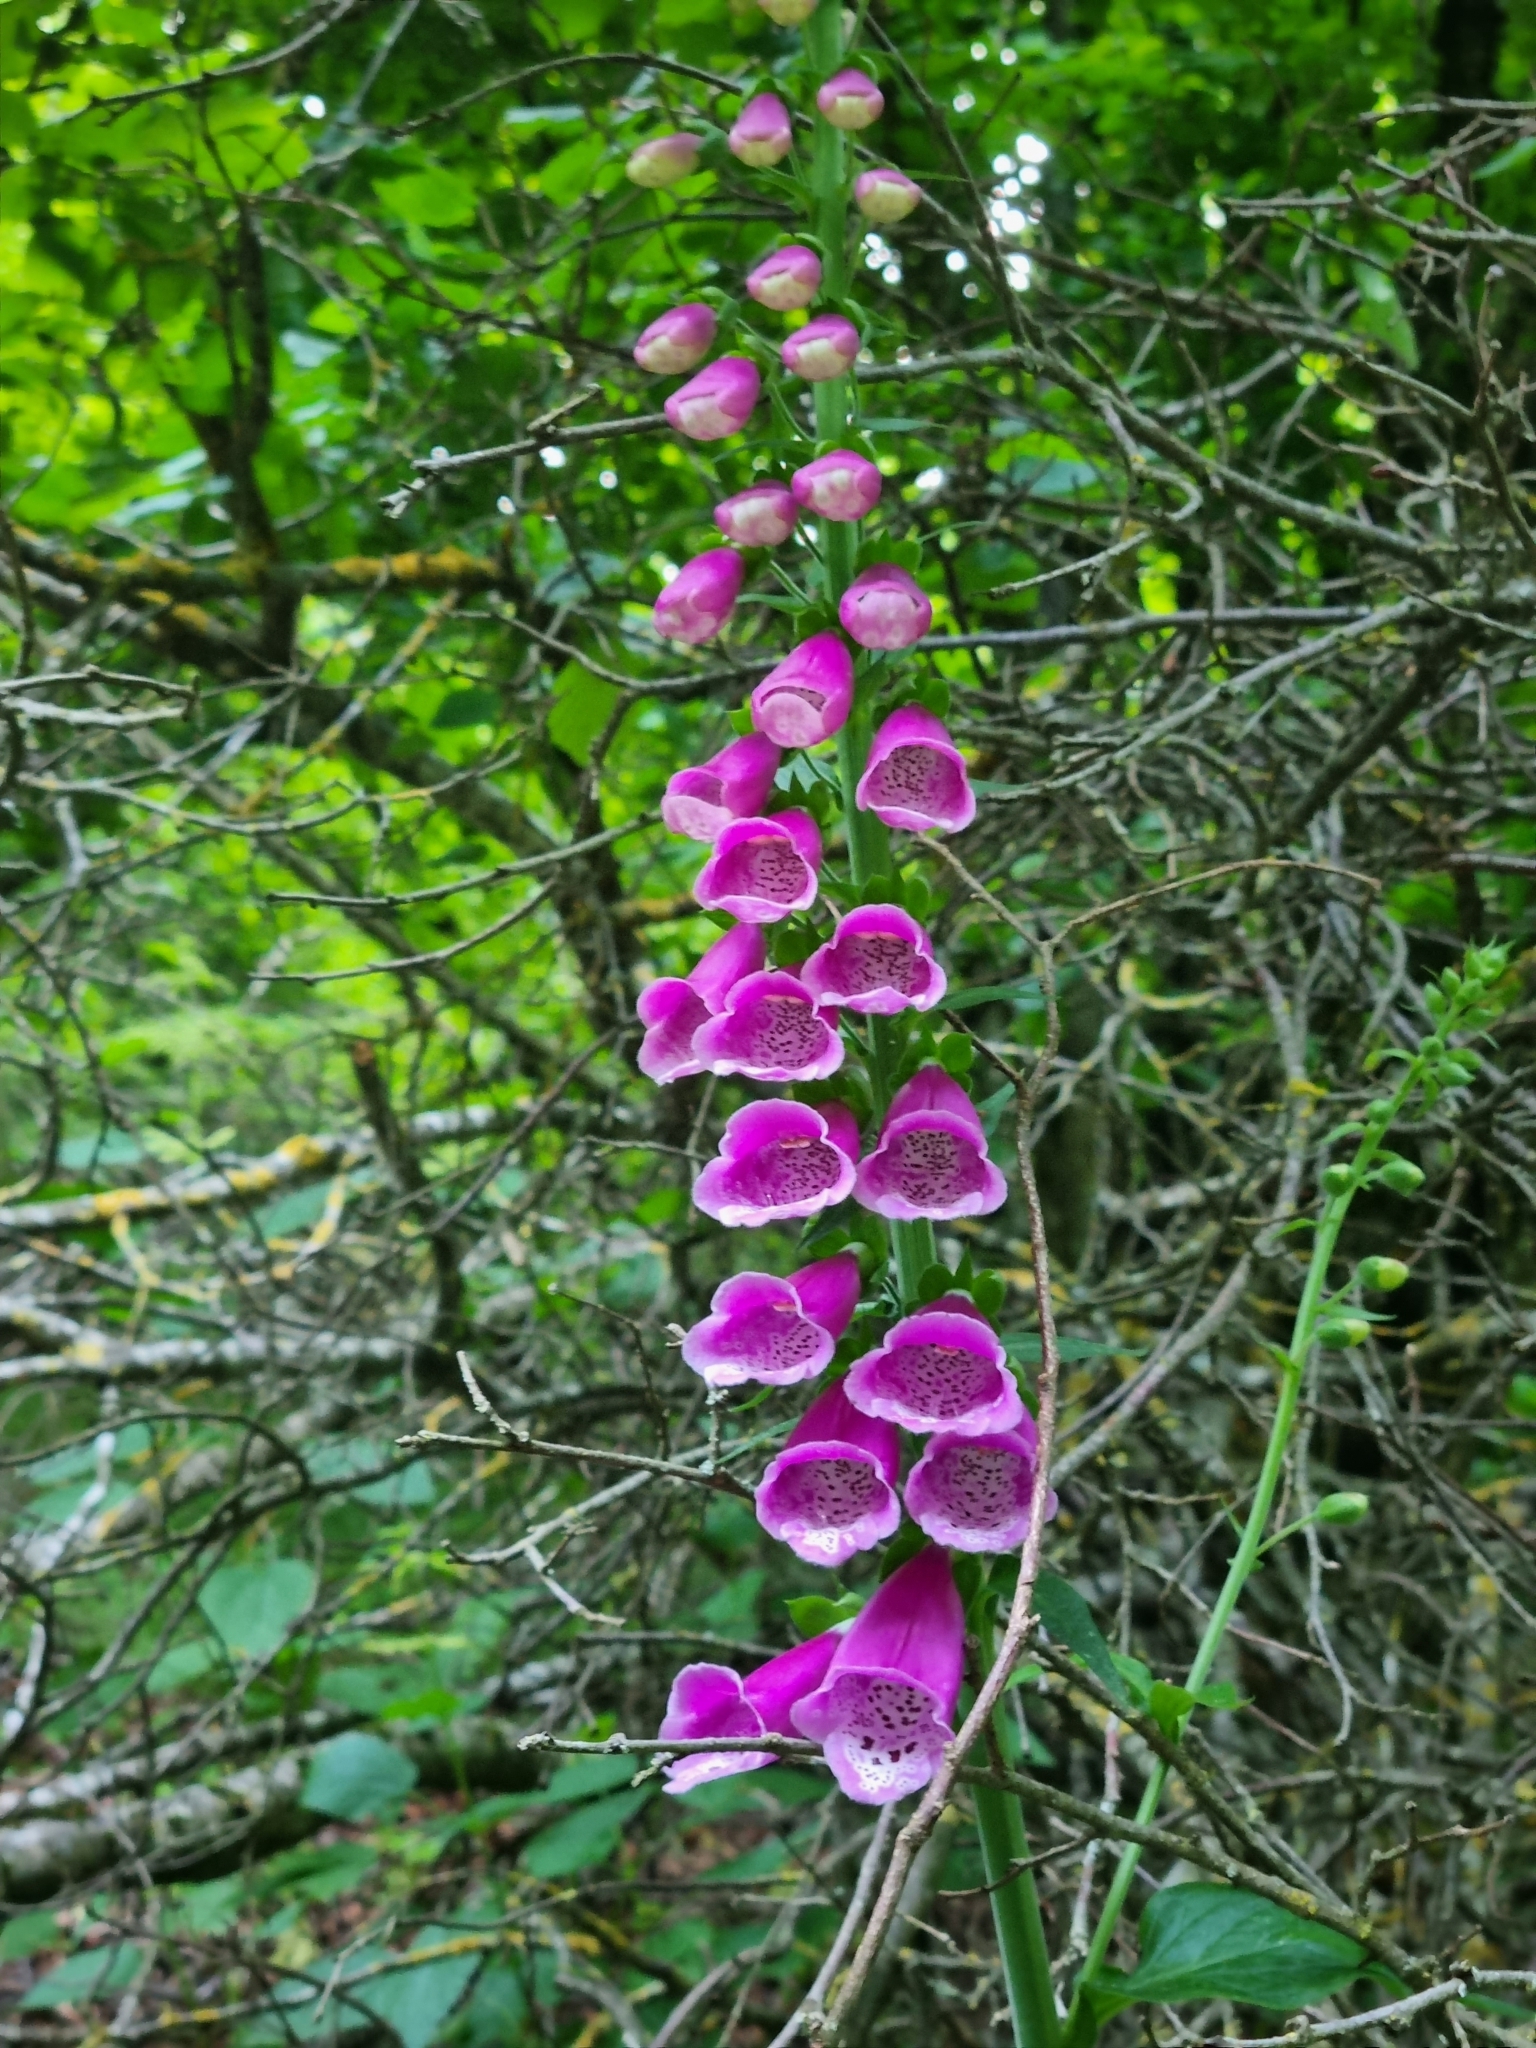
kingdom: Plantae
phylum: Tracheophyta
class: Magnoliopsida
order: Lamiales
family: Plantaginaceae
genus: Digitalis
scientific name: Digitalis purpurea
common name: Foxglove
